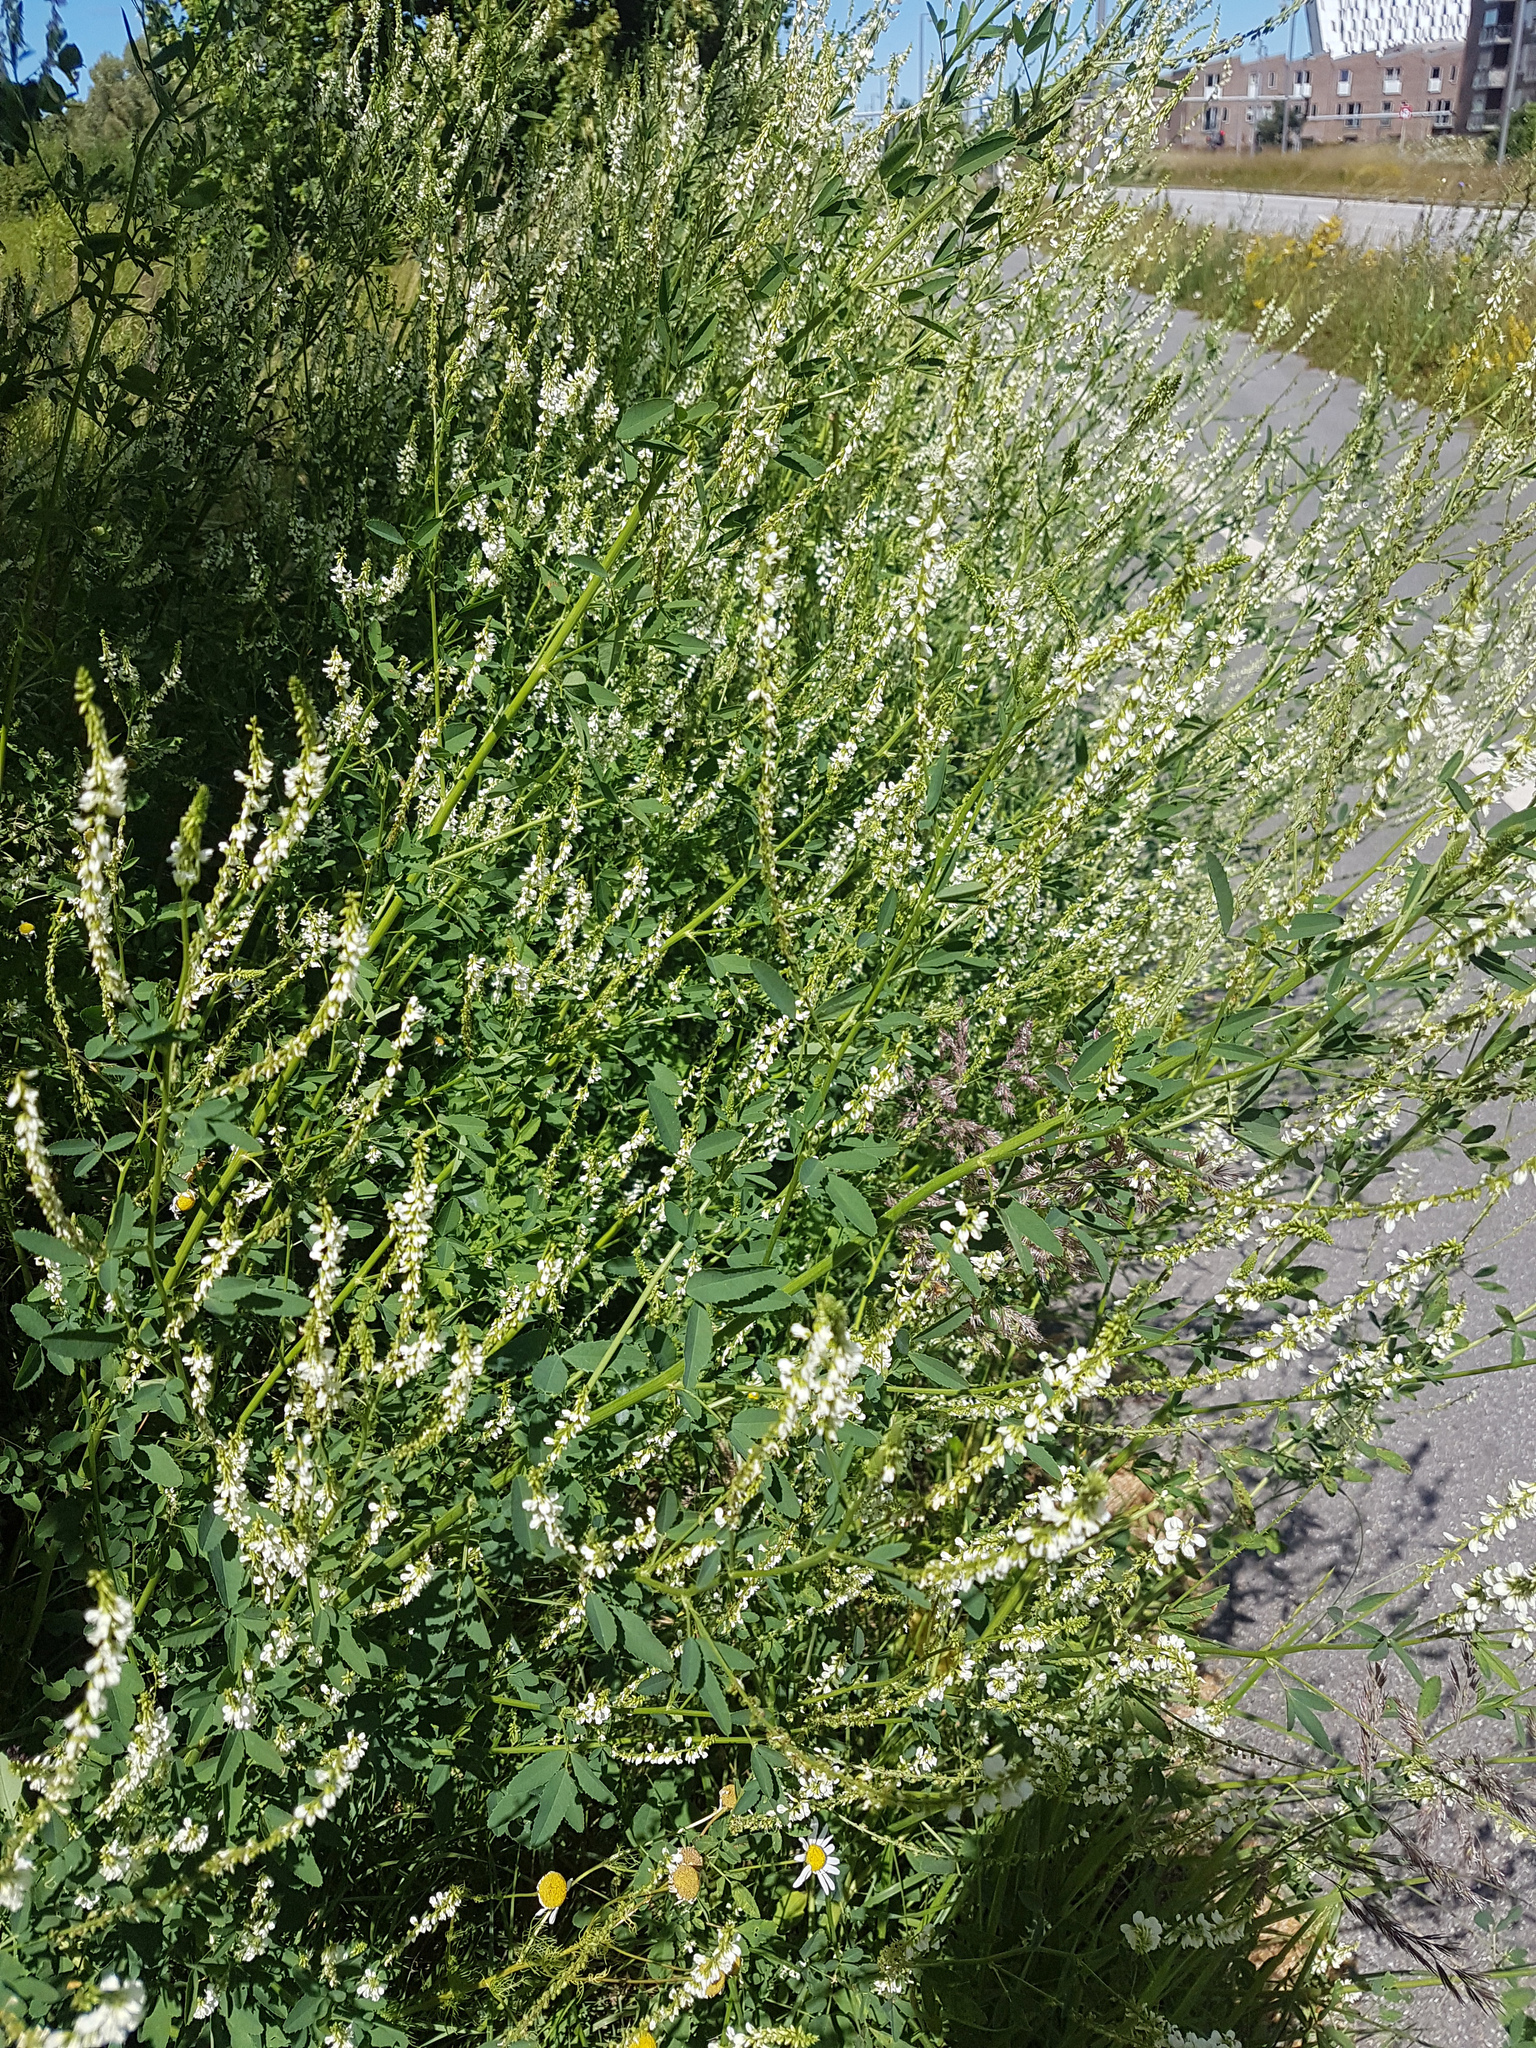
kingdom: Plantae
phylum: Tracheophyta
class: Magnoliopsida
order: Fabales
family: Fabaceae
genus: Melilotus
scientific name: Melilotus albus
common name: White melilot
